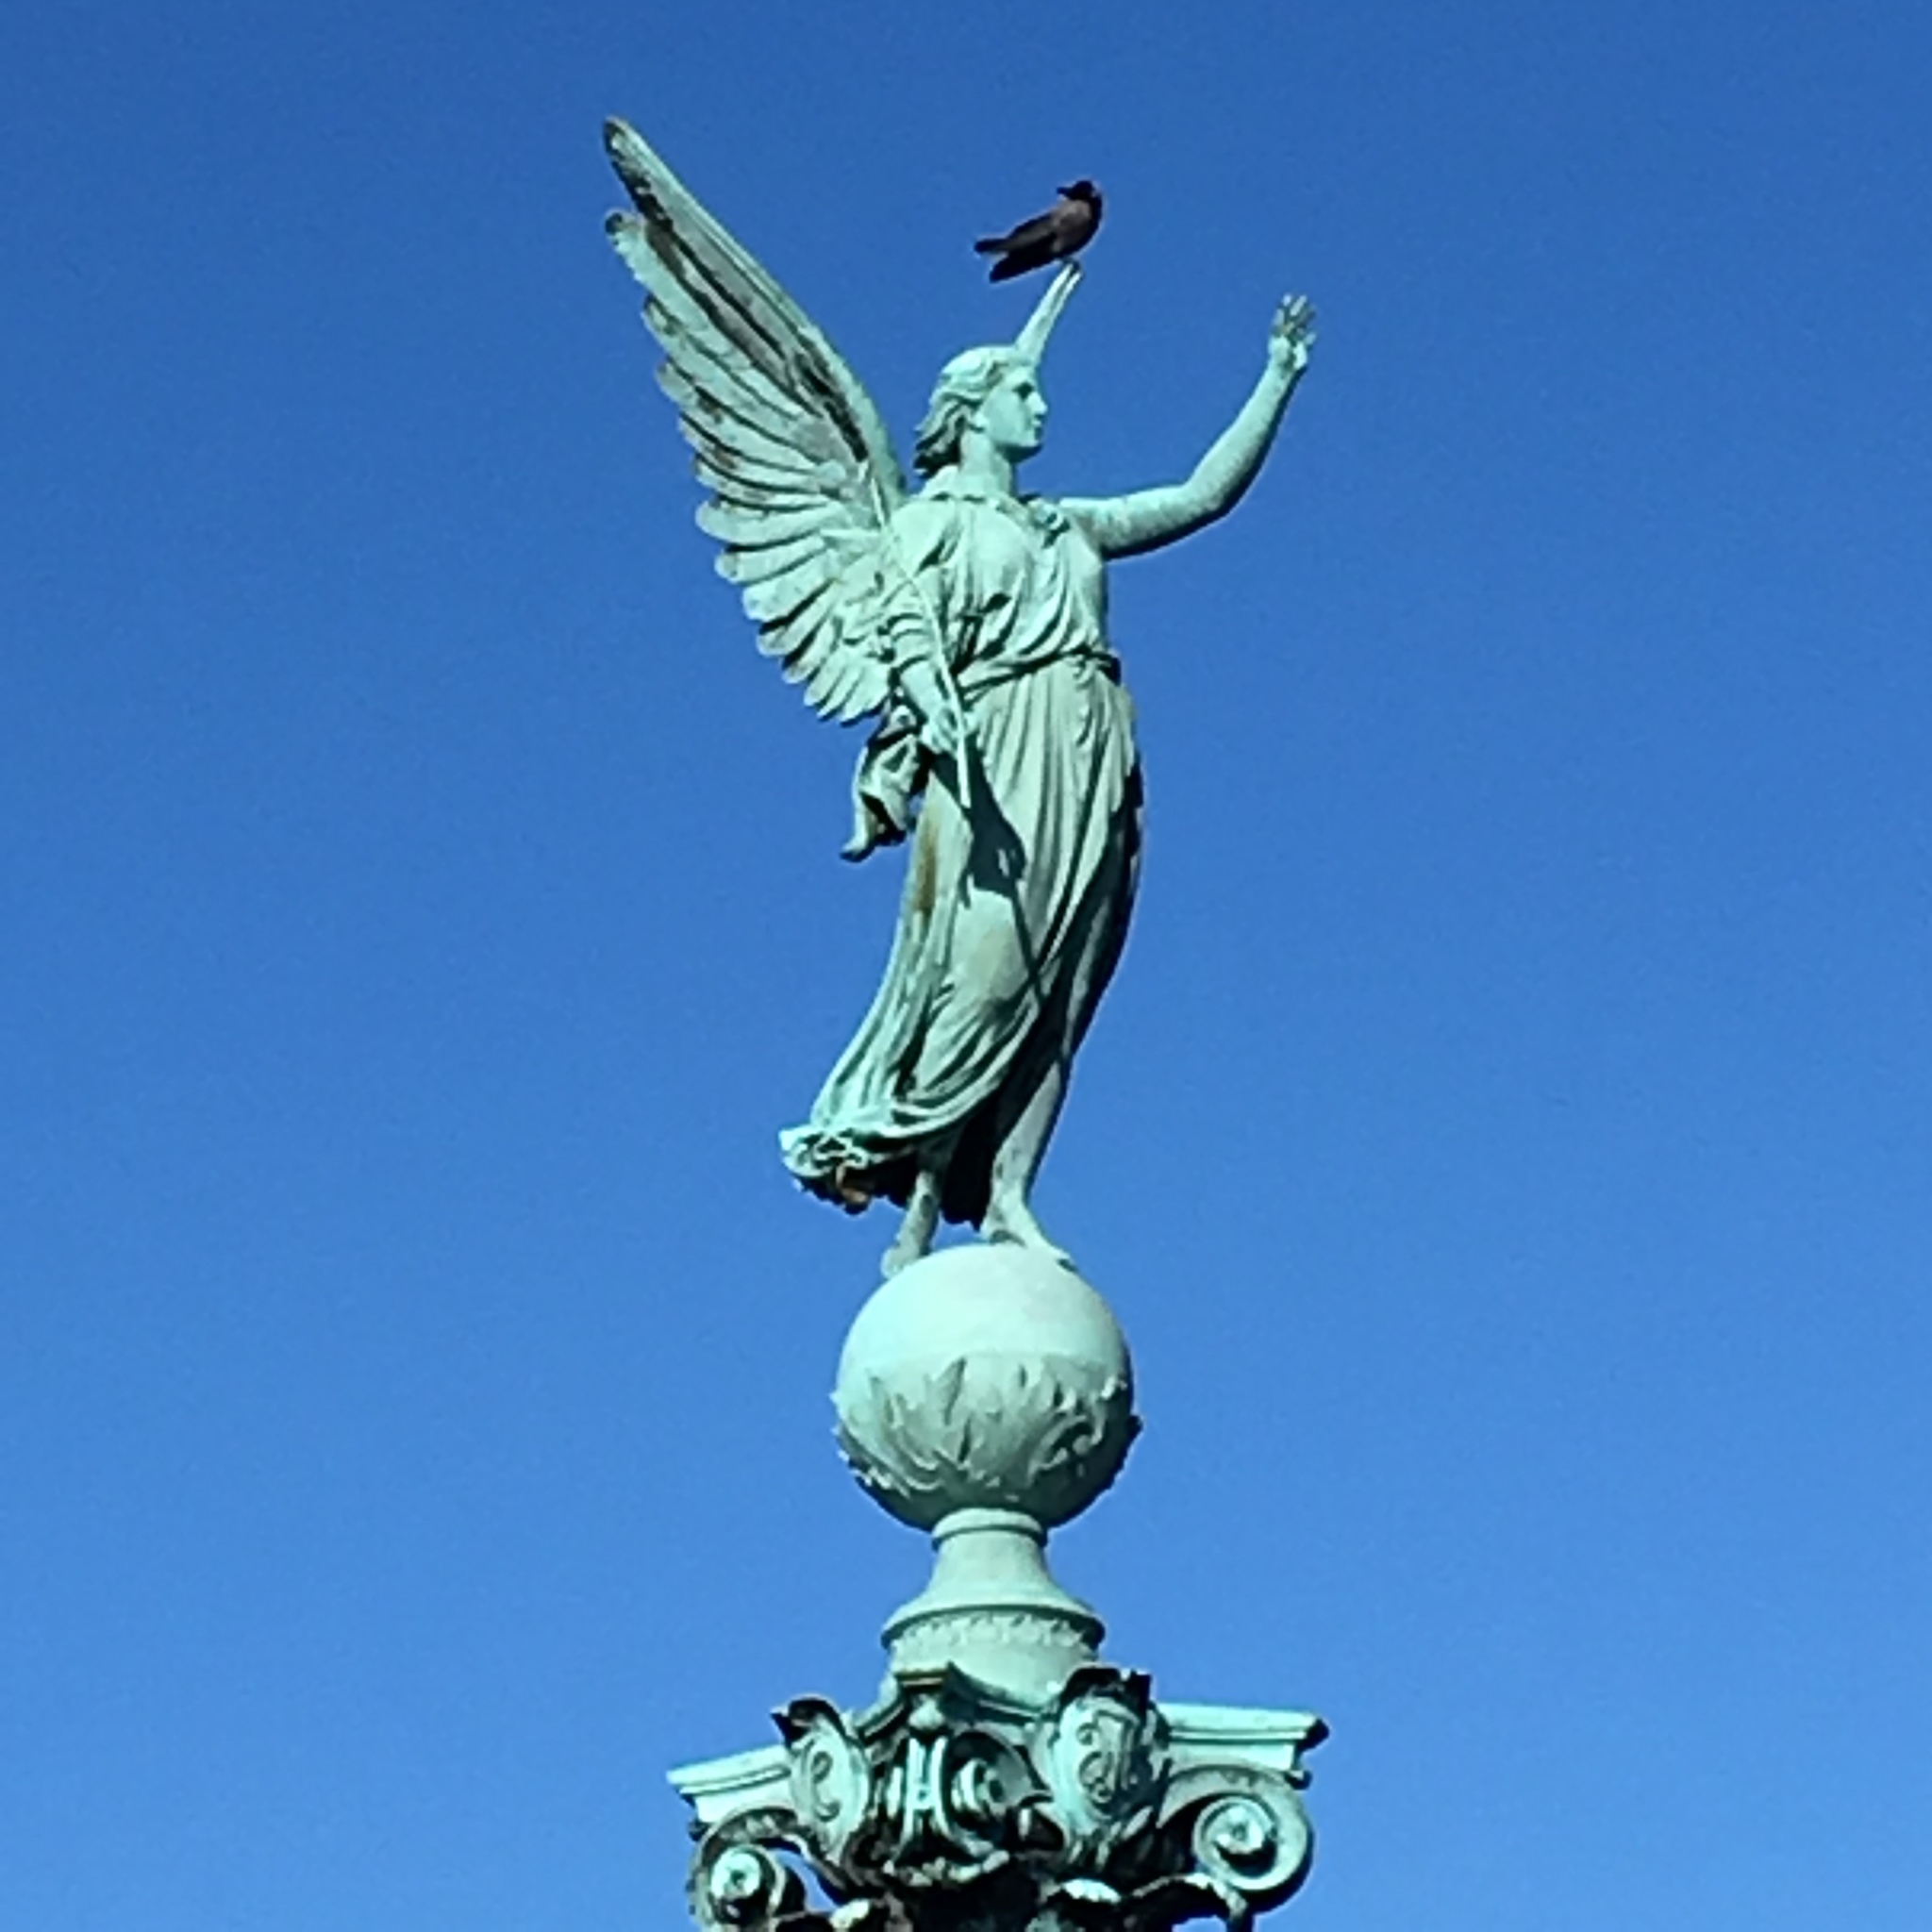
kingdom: Animalia
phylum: Chordata
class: Aves
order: Passeriformes
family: Corvidae
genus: Corvus
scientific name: Corvus cornix
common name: Hooded crow
